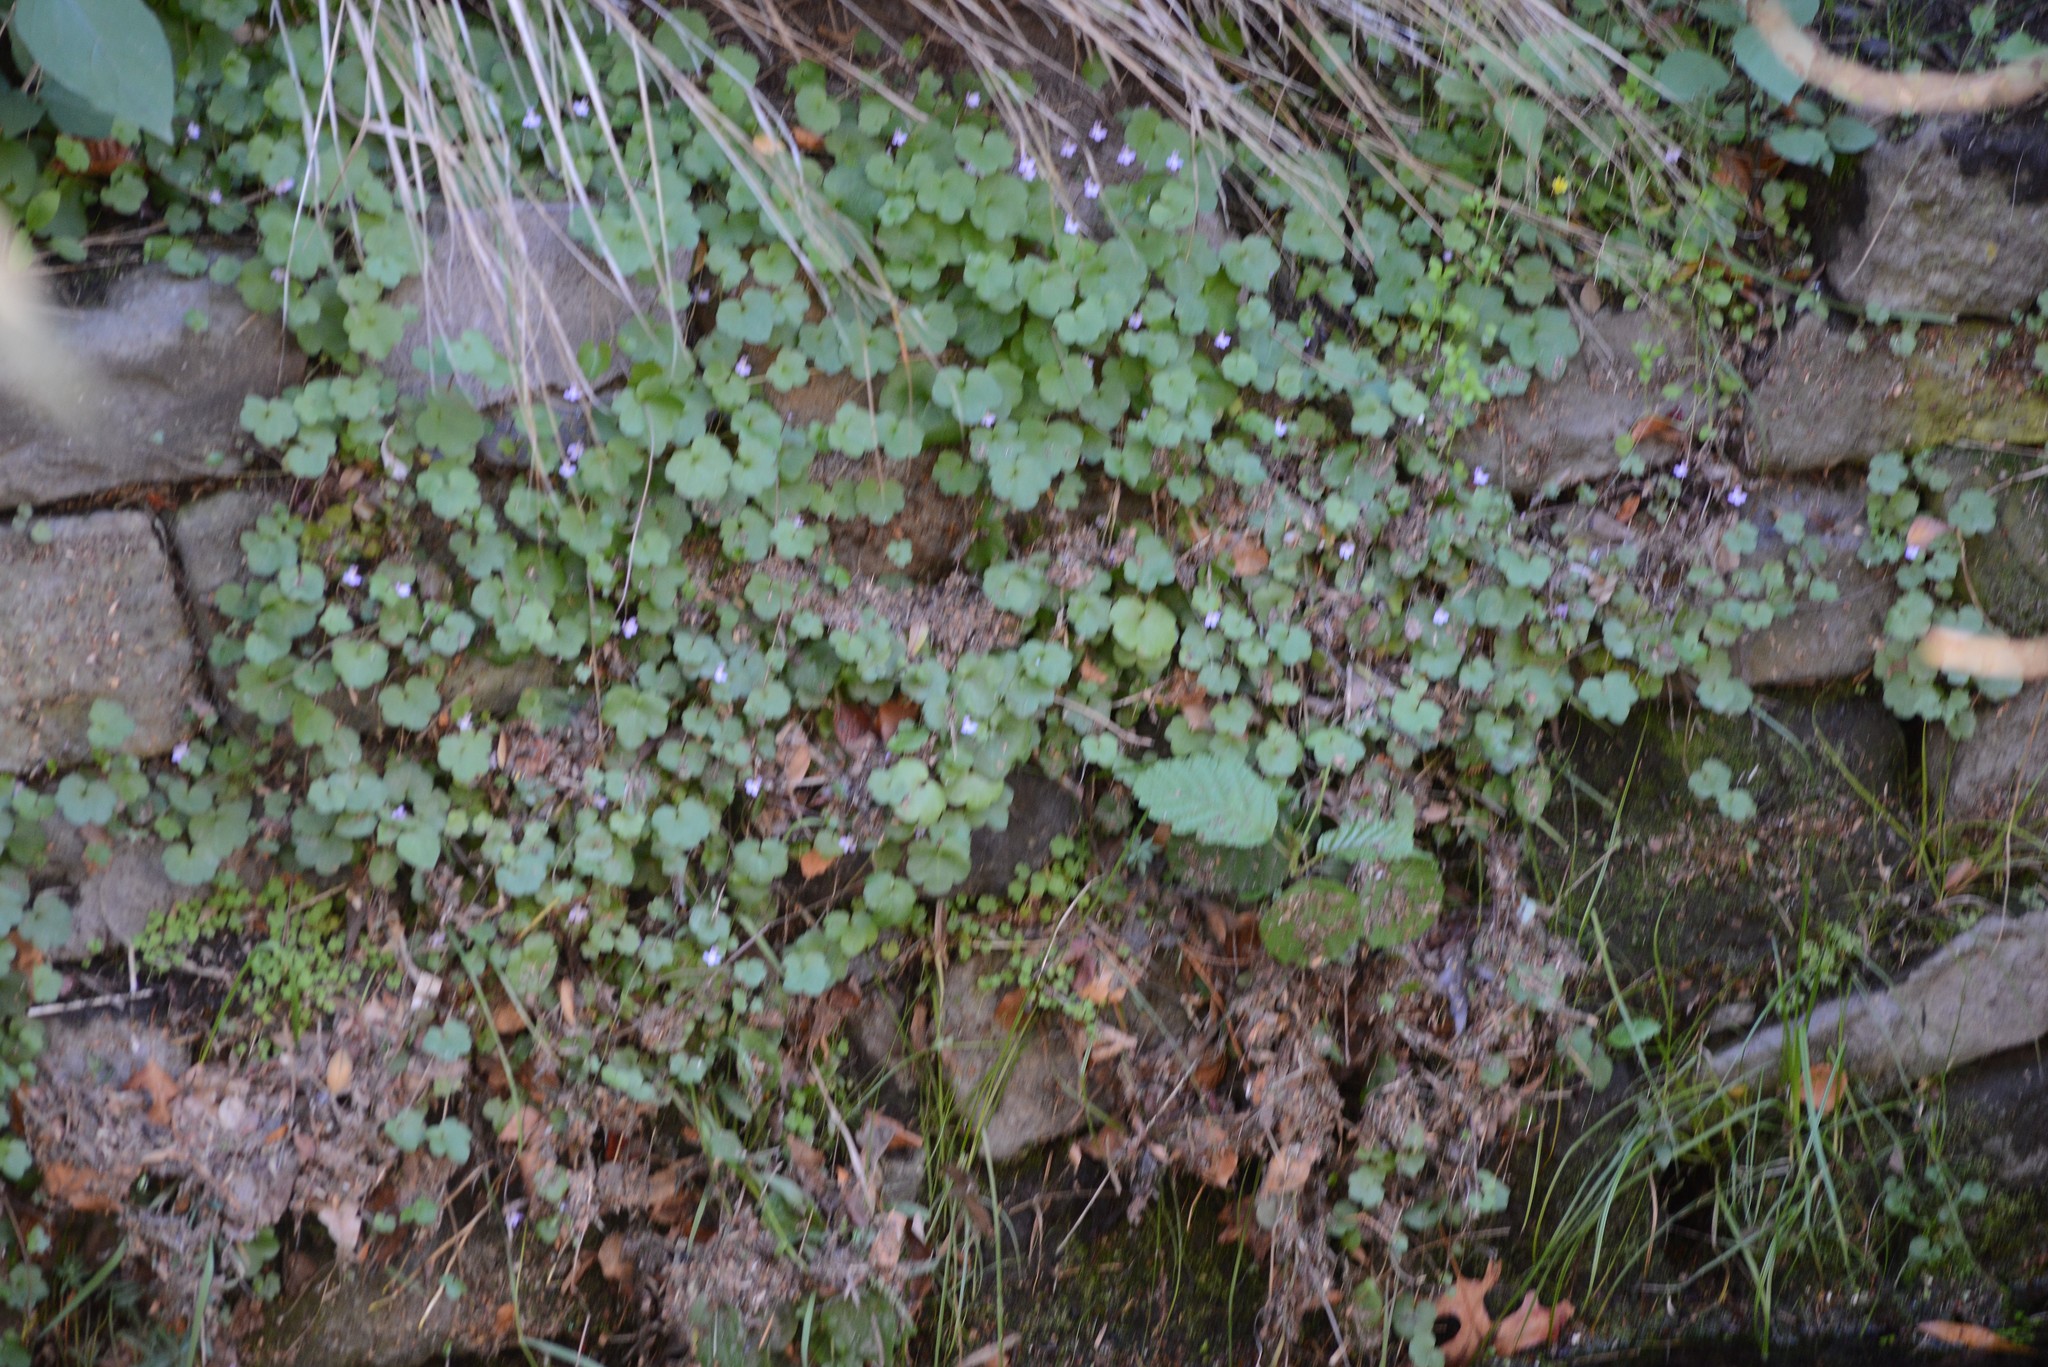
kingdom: Plantae
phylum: Tracheophyta
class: Magnoliopsida
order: Lamiales
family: Plantaginaceae
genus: Cymbalaria
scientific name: Cymbalaria muralis
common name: Ivy-leaved toadflax
